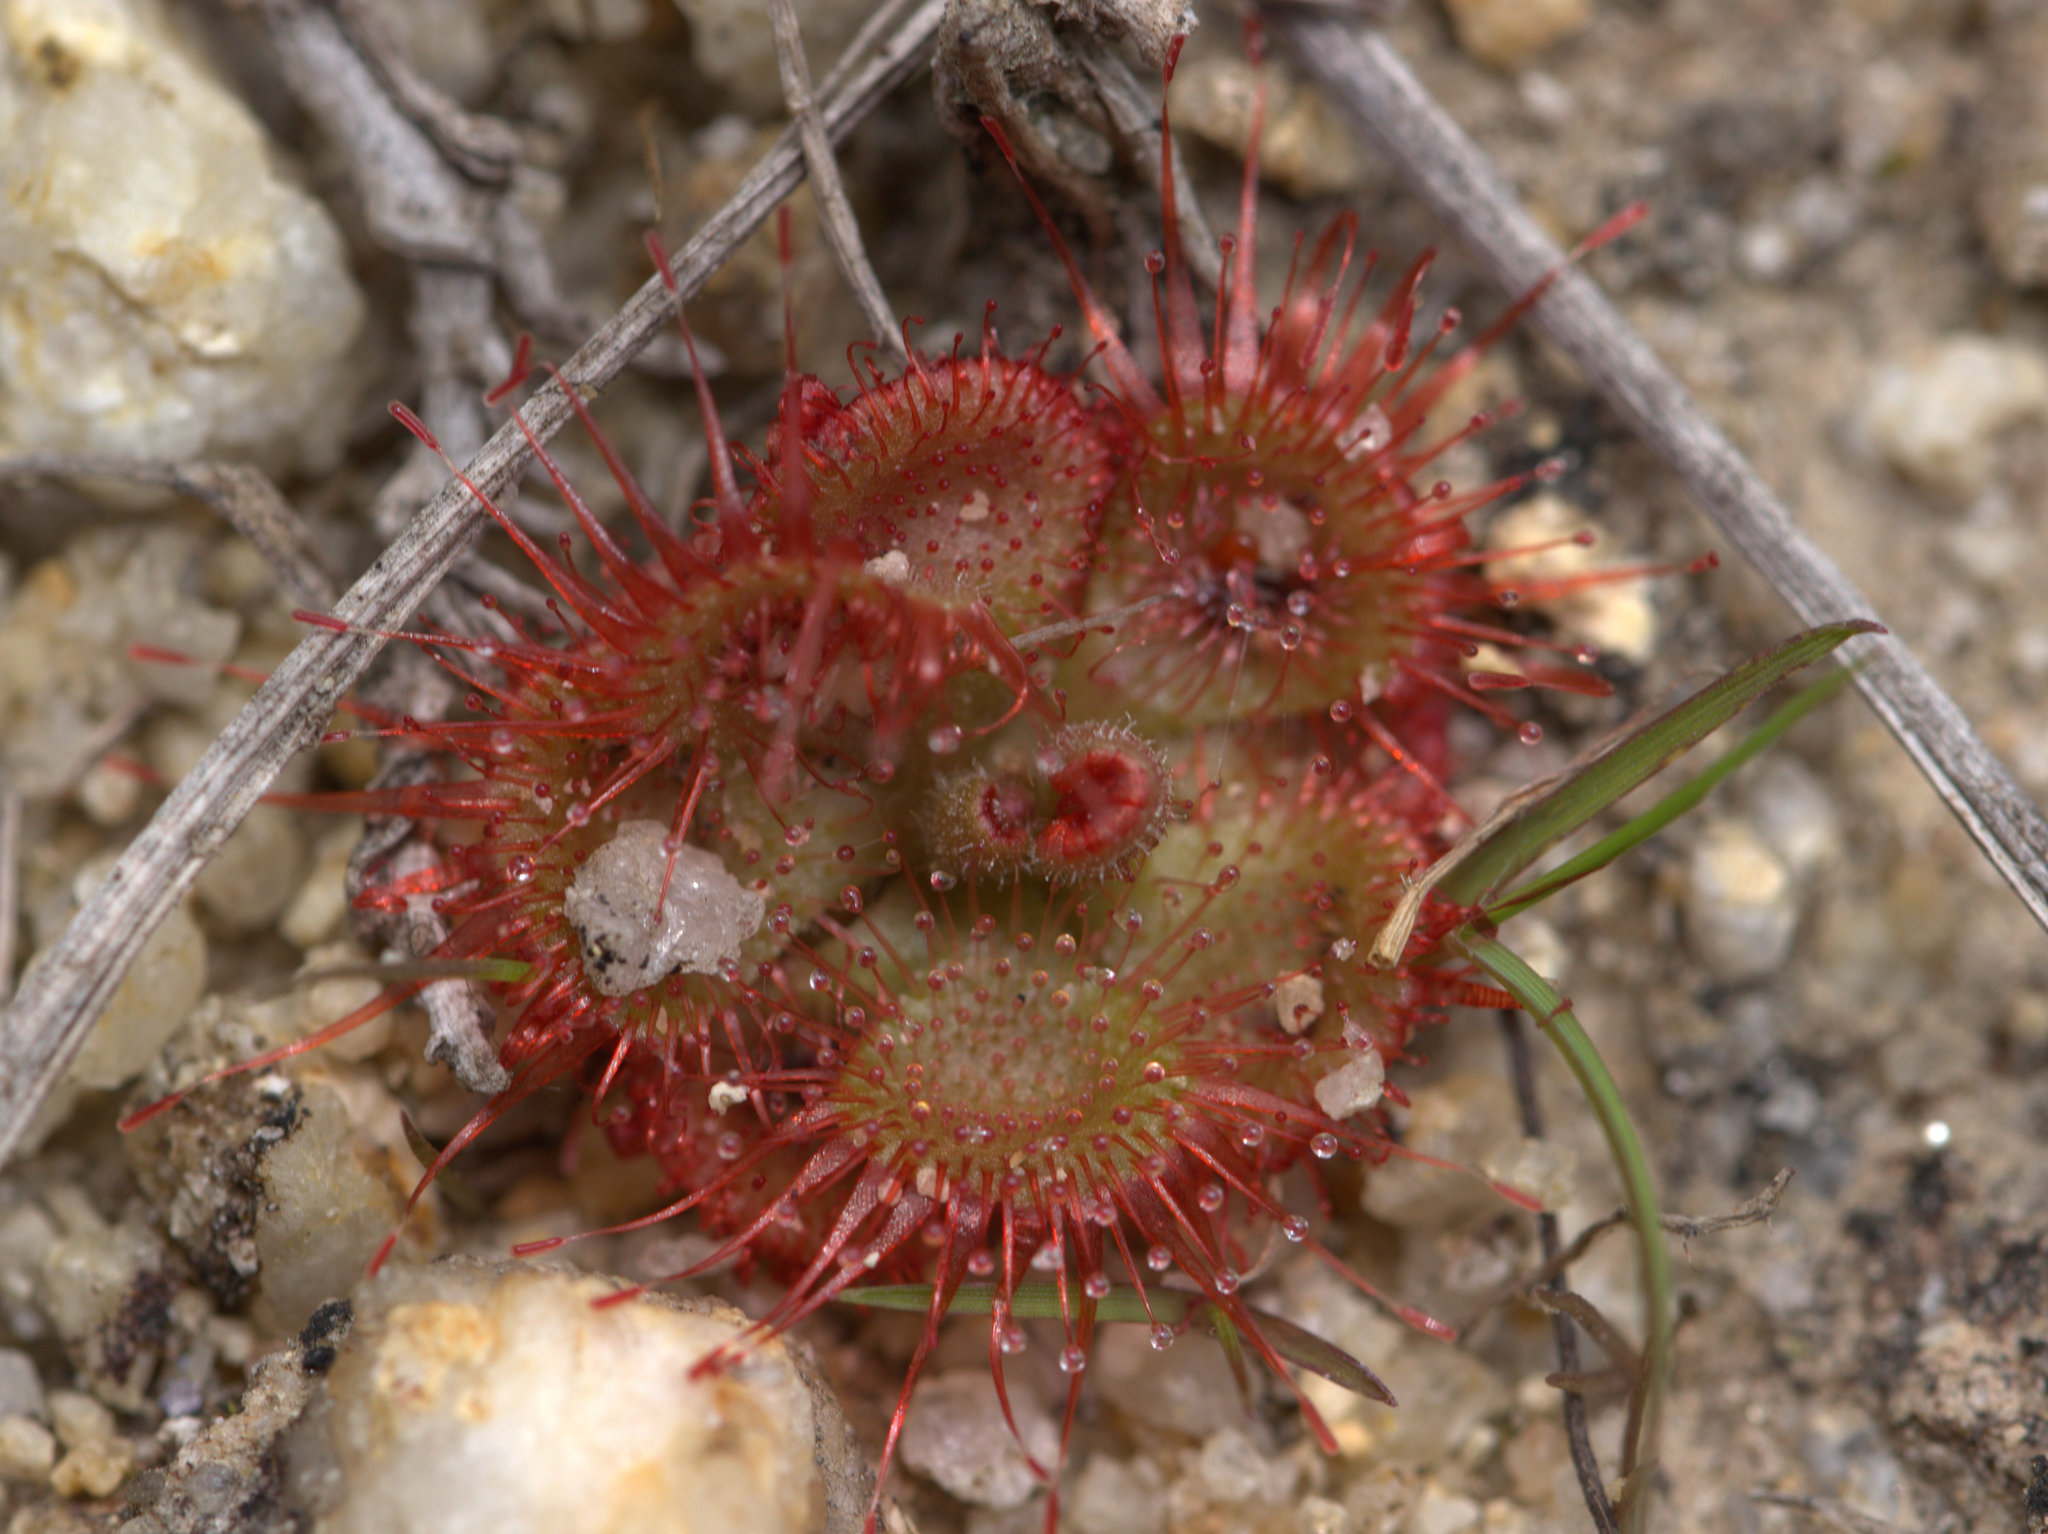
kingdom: Plantae
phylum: Tracheophyta
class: Magnoliopsida
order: Caryophyllales
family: Droseraceae
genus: Drosera
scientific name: Drosera spatulata
